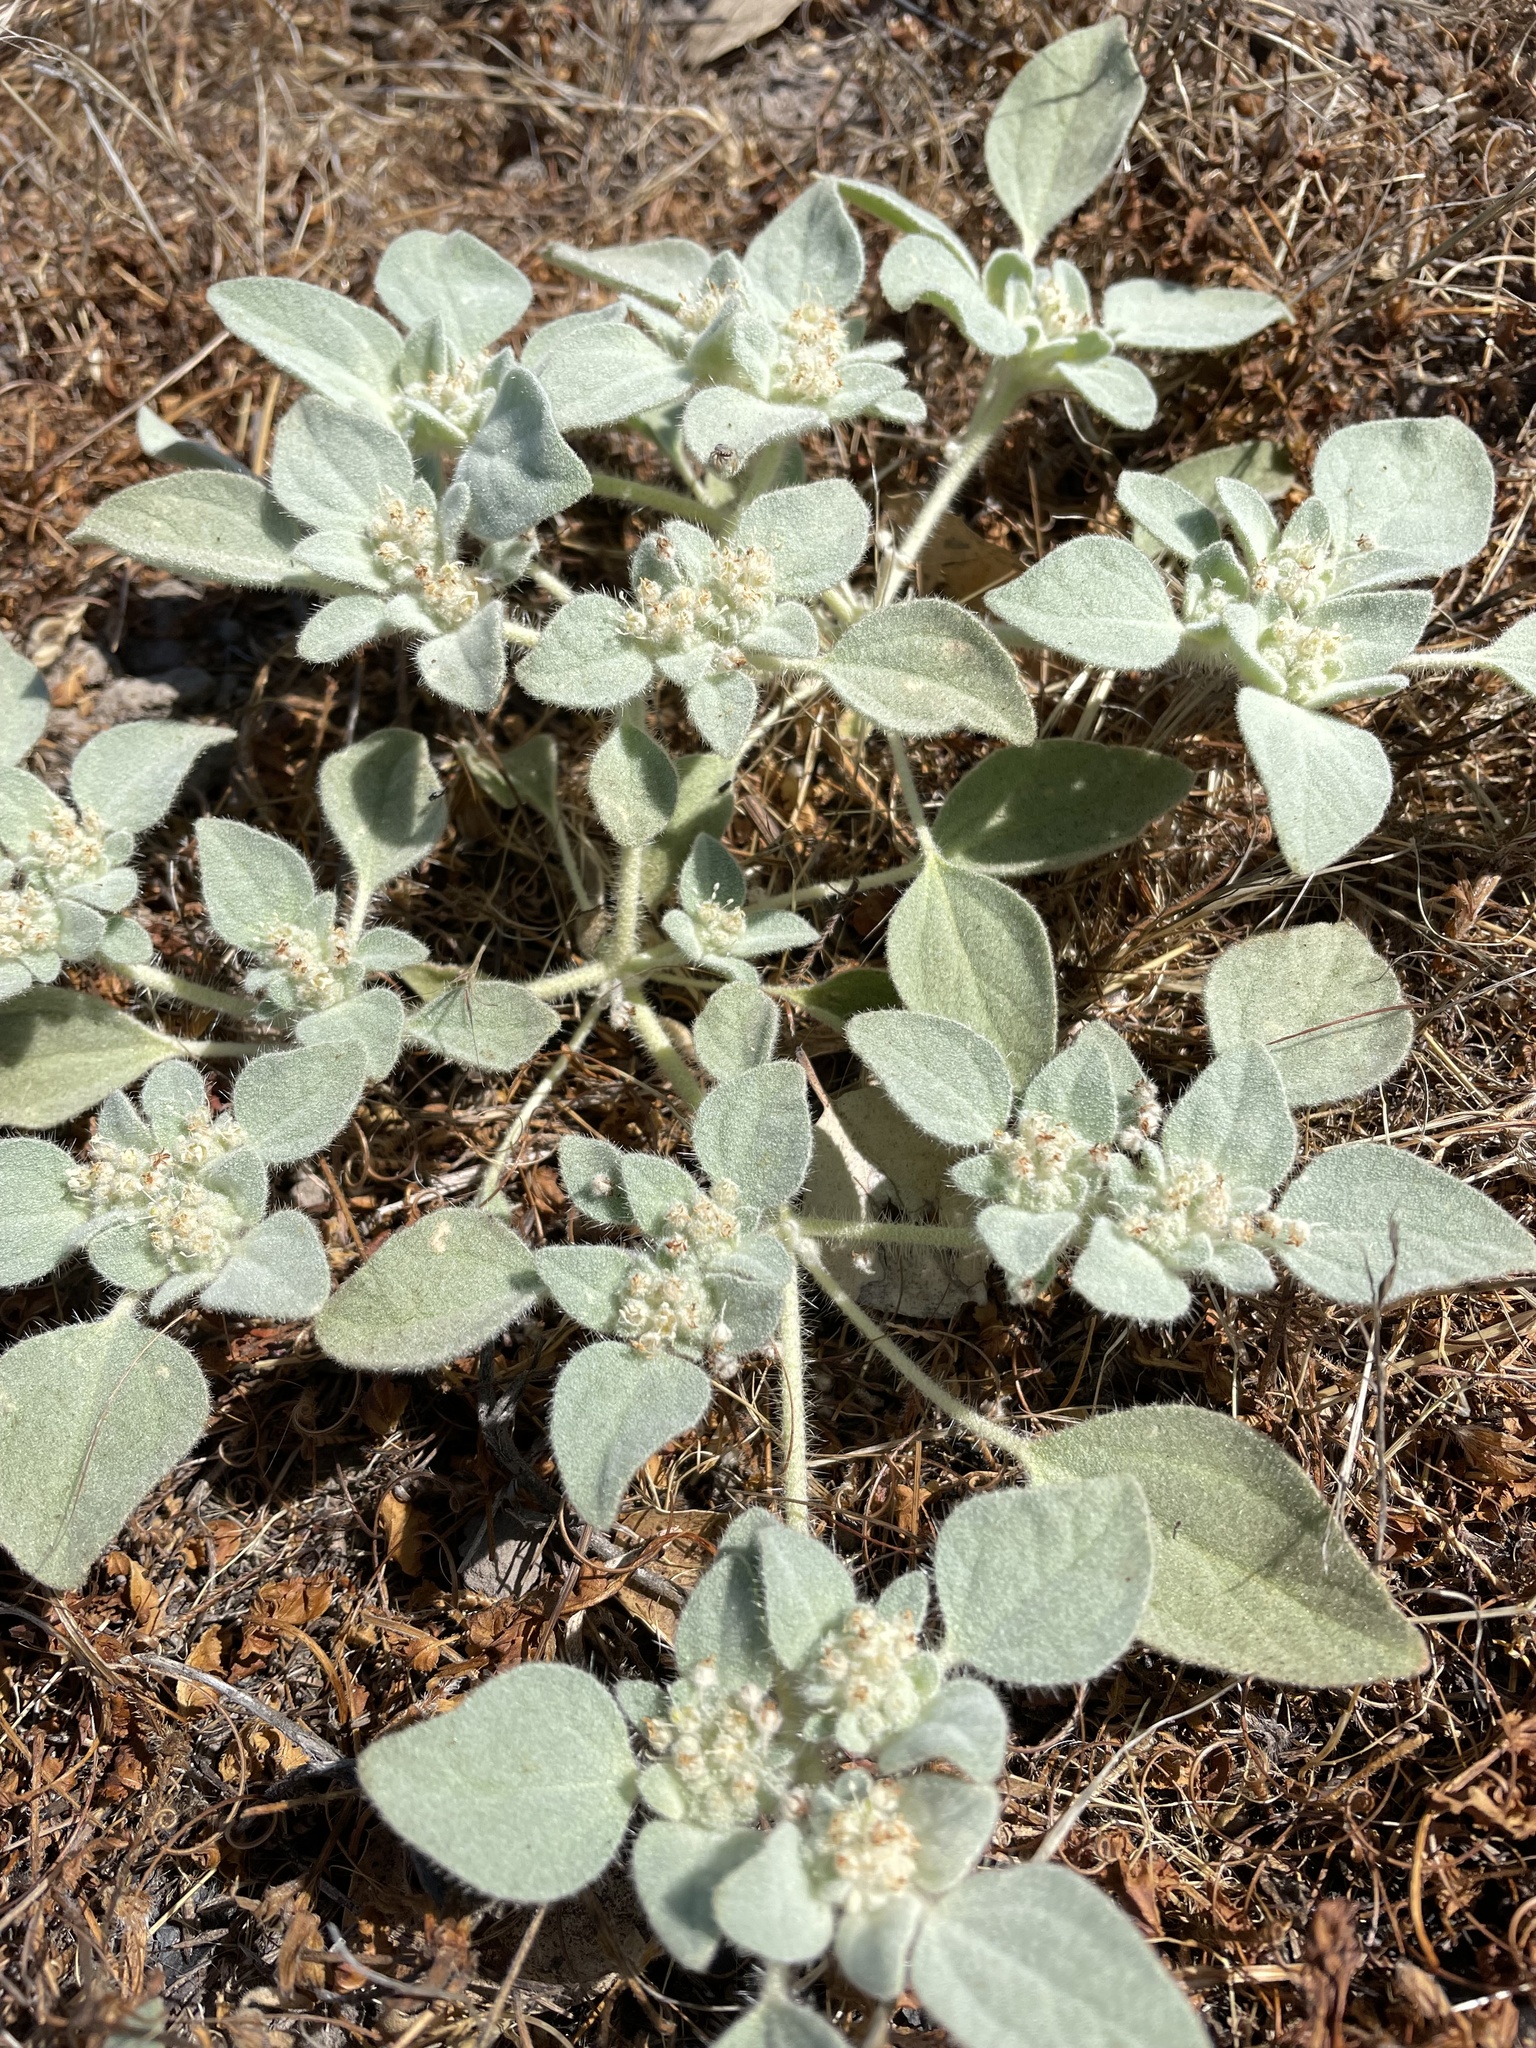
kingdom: Plantae
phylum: Tracheophyta
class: Magnoliopsida
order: Malpighiales
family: Euphorbiaceae
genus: Croton
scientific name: Croton setiger
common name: Dove weed
